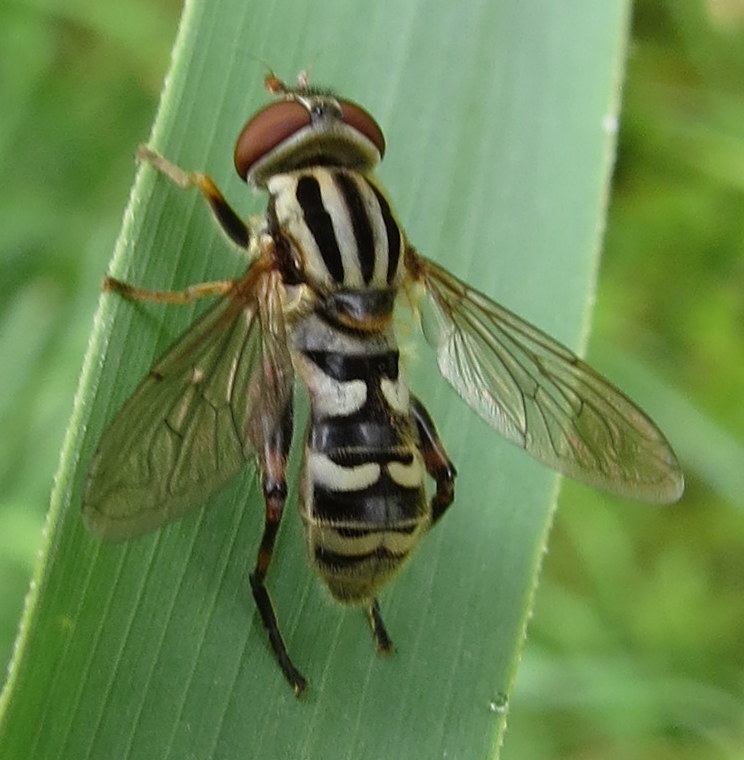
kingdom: Animalia
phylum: Arthropoda
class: Insecta
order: Diptera
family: Syrphidae
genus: Anasimyia
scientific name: Anasimyia
